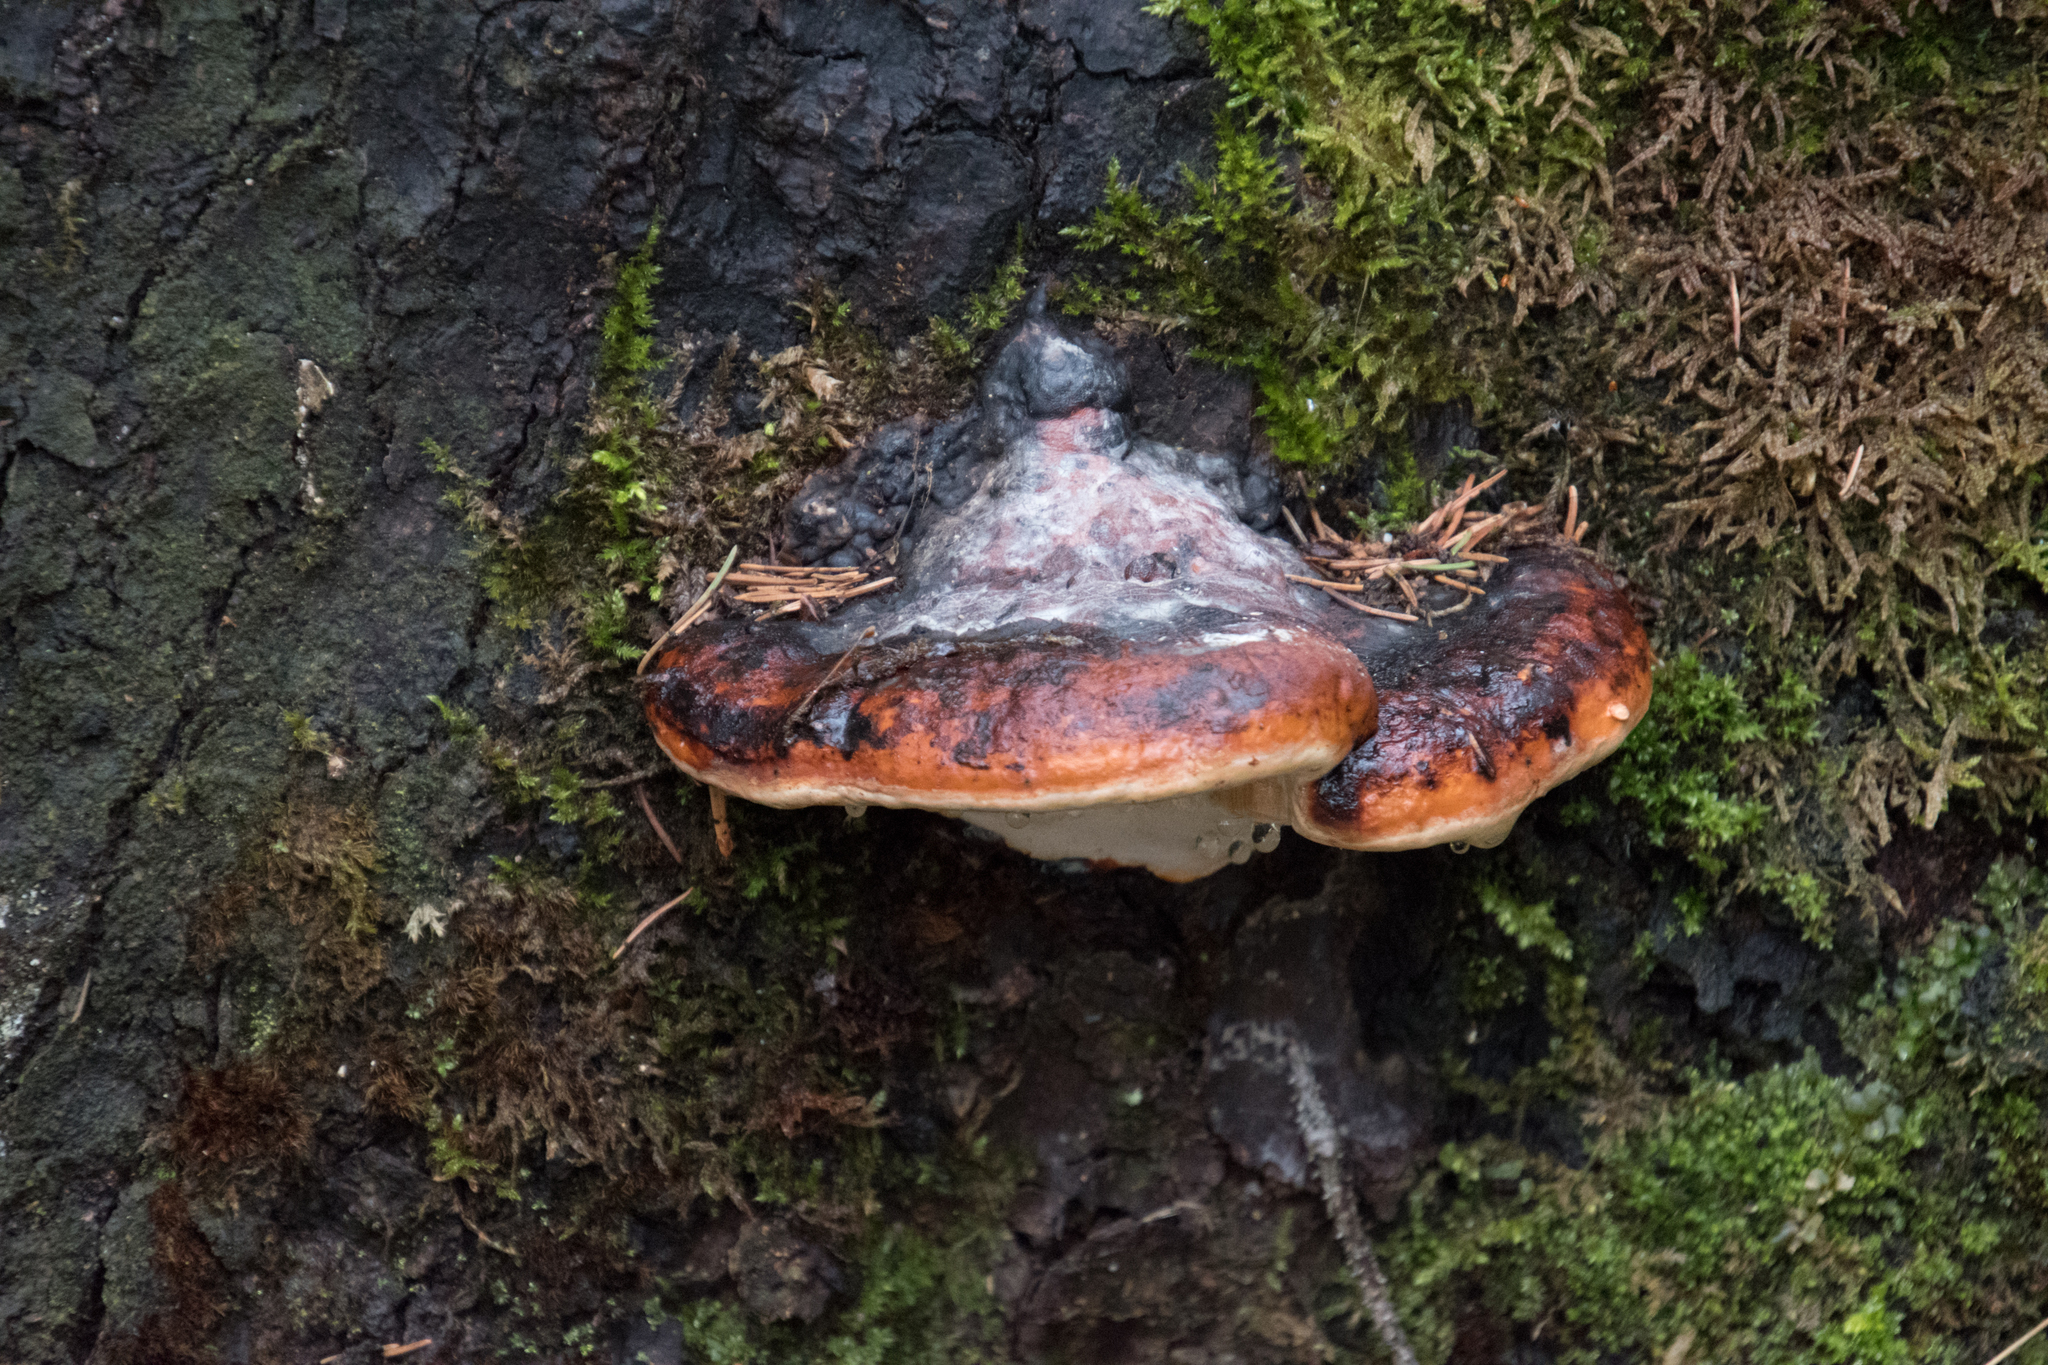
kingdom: Fungi
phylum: Basidiomycota
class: Agaricomycetes
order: Polyporales
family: Fomitopsidaceae
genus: Fomitopsis
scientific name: Fomitopsis pinicola
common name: Red-belted bracket
